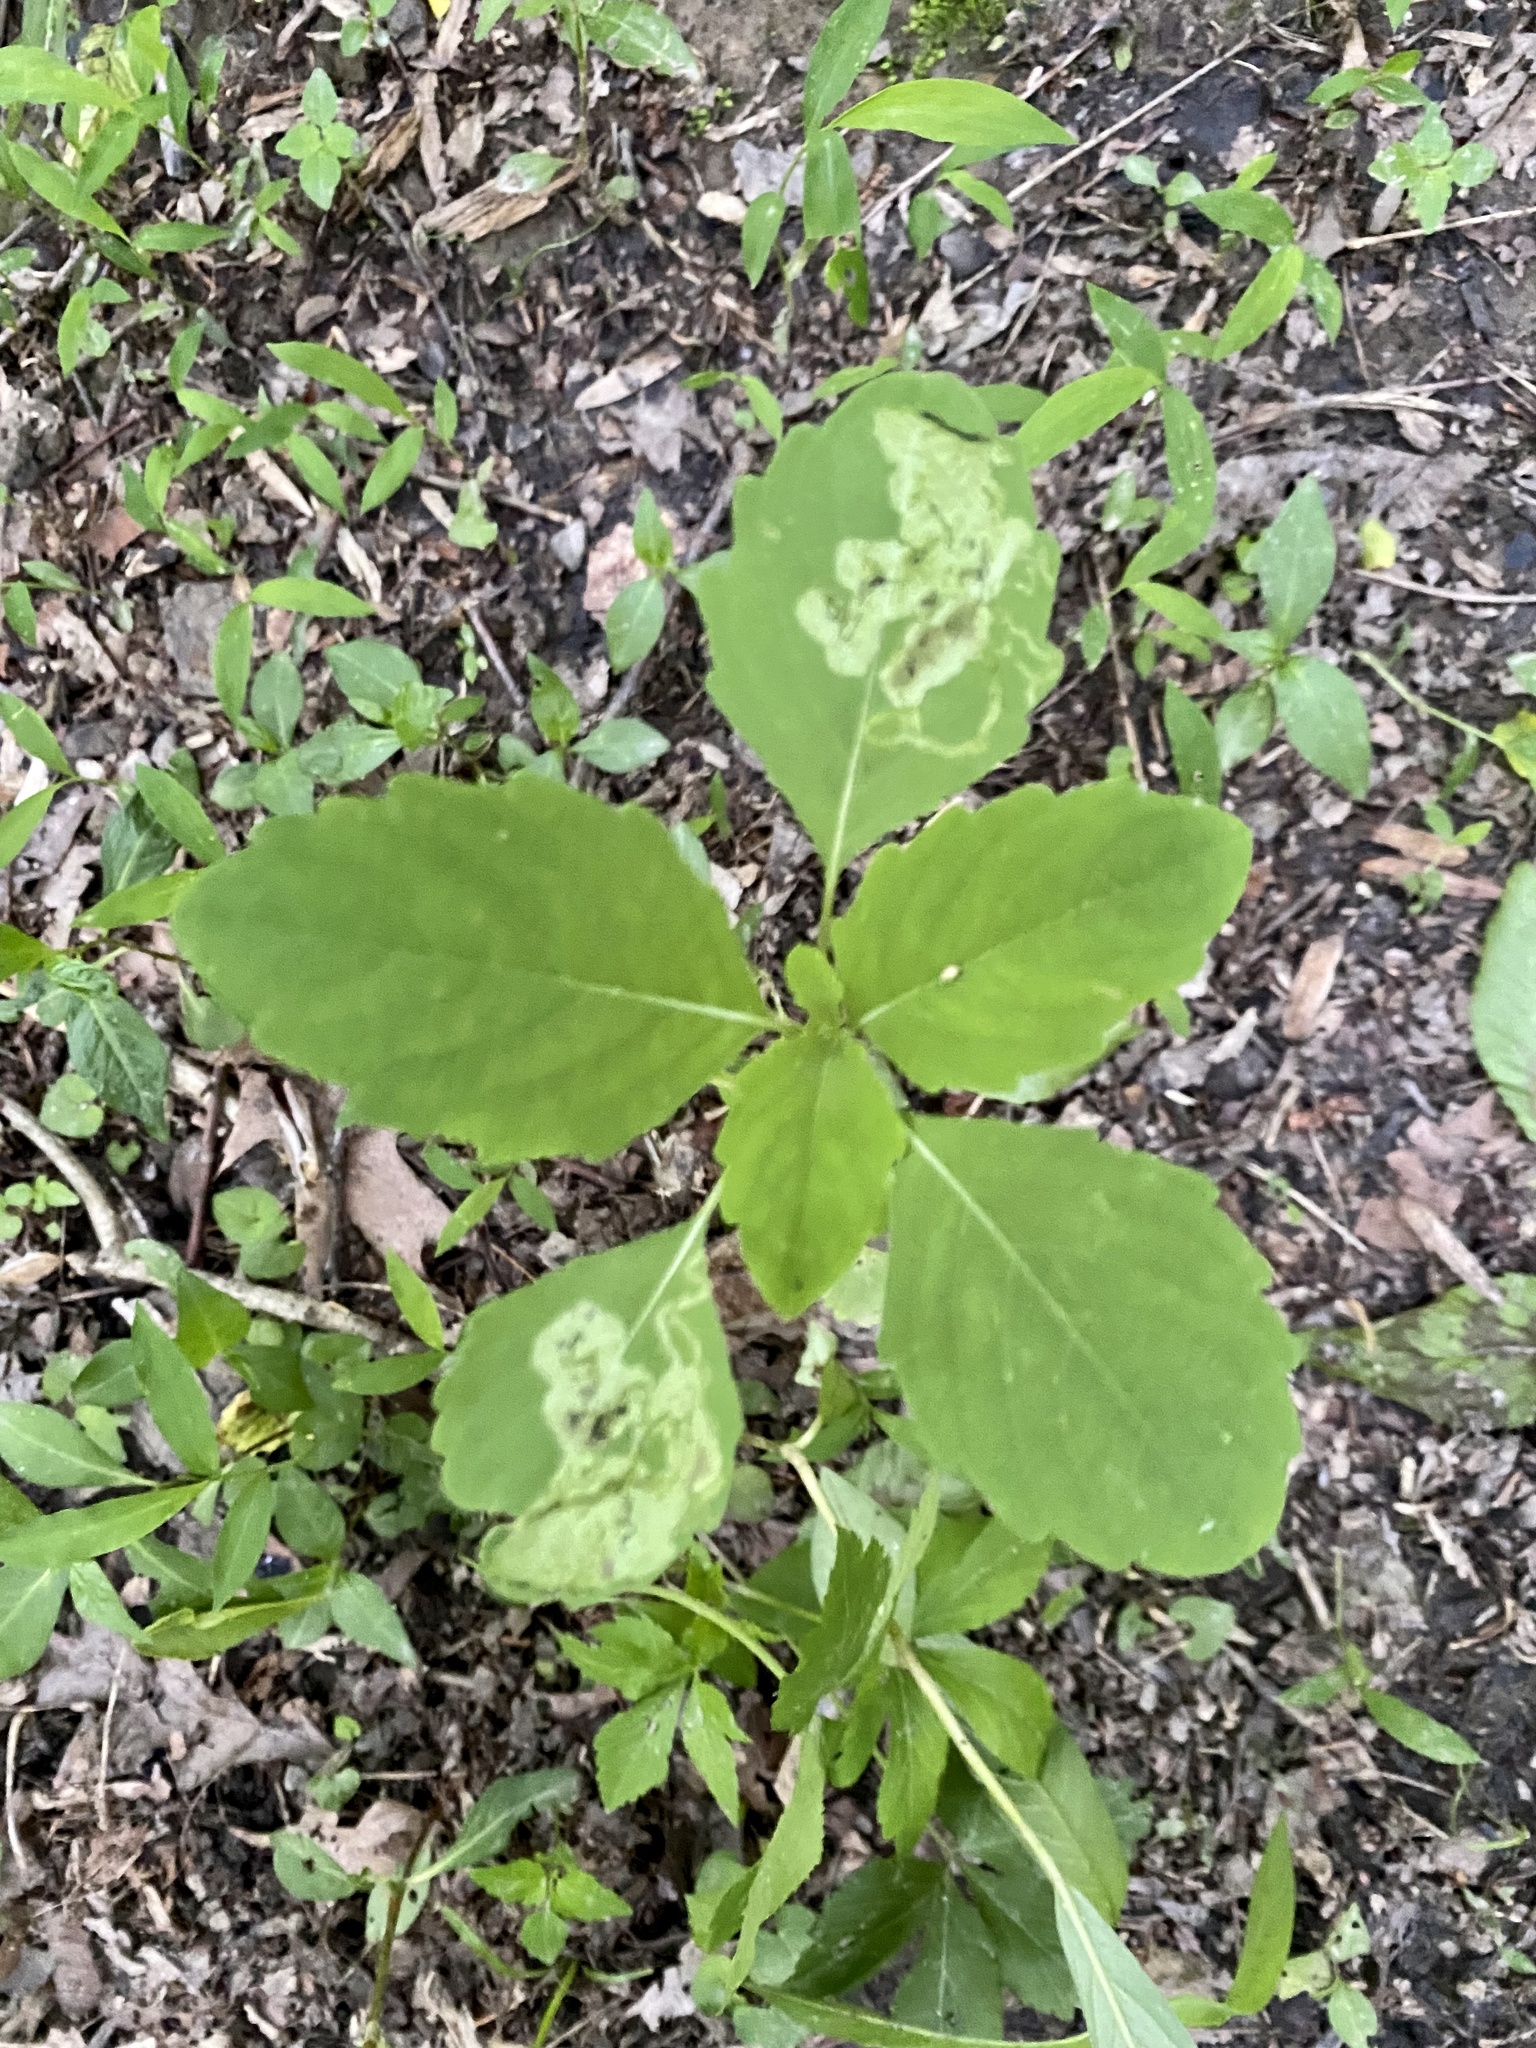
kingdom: Animalia
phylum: Arthropoda
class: Insecta
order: Diptera
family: Agromyzidae
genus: Phytoliriomyza
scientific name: Phytoliriomyza melampyga
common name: Jewelweed leaf-miner fly
